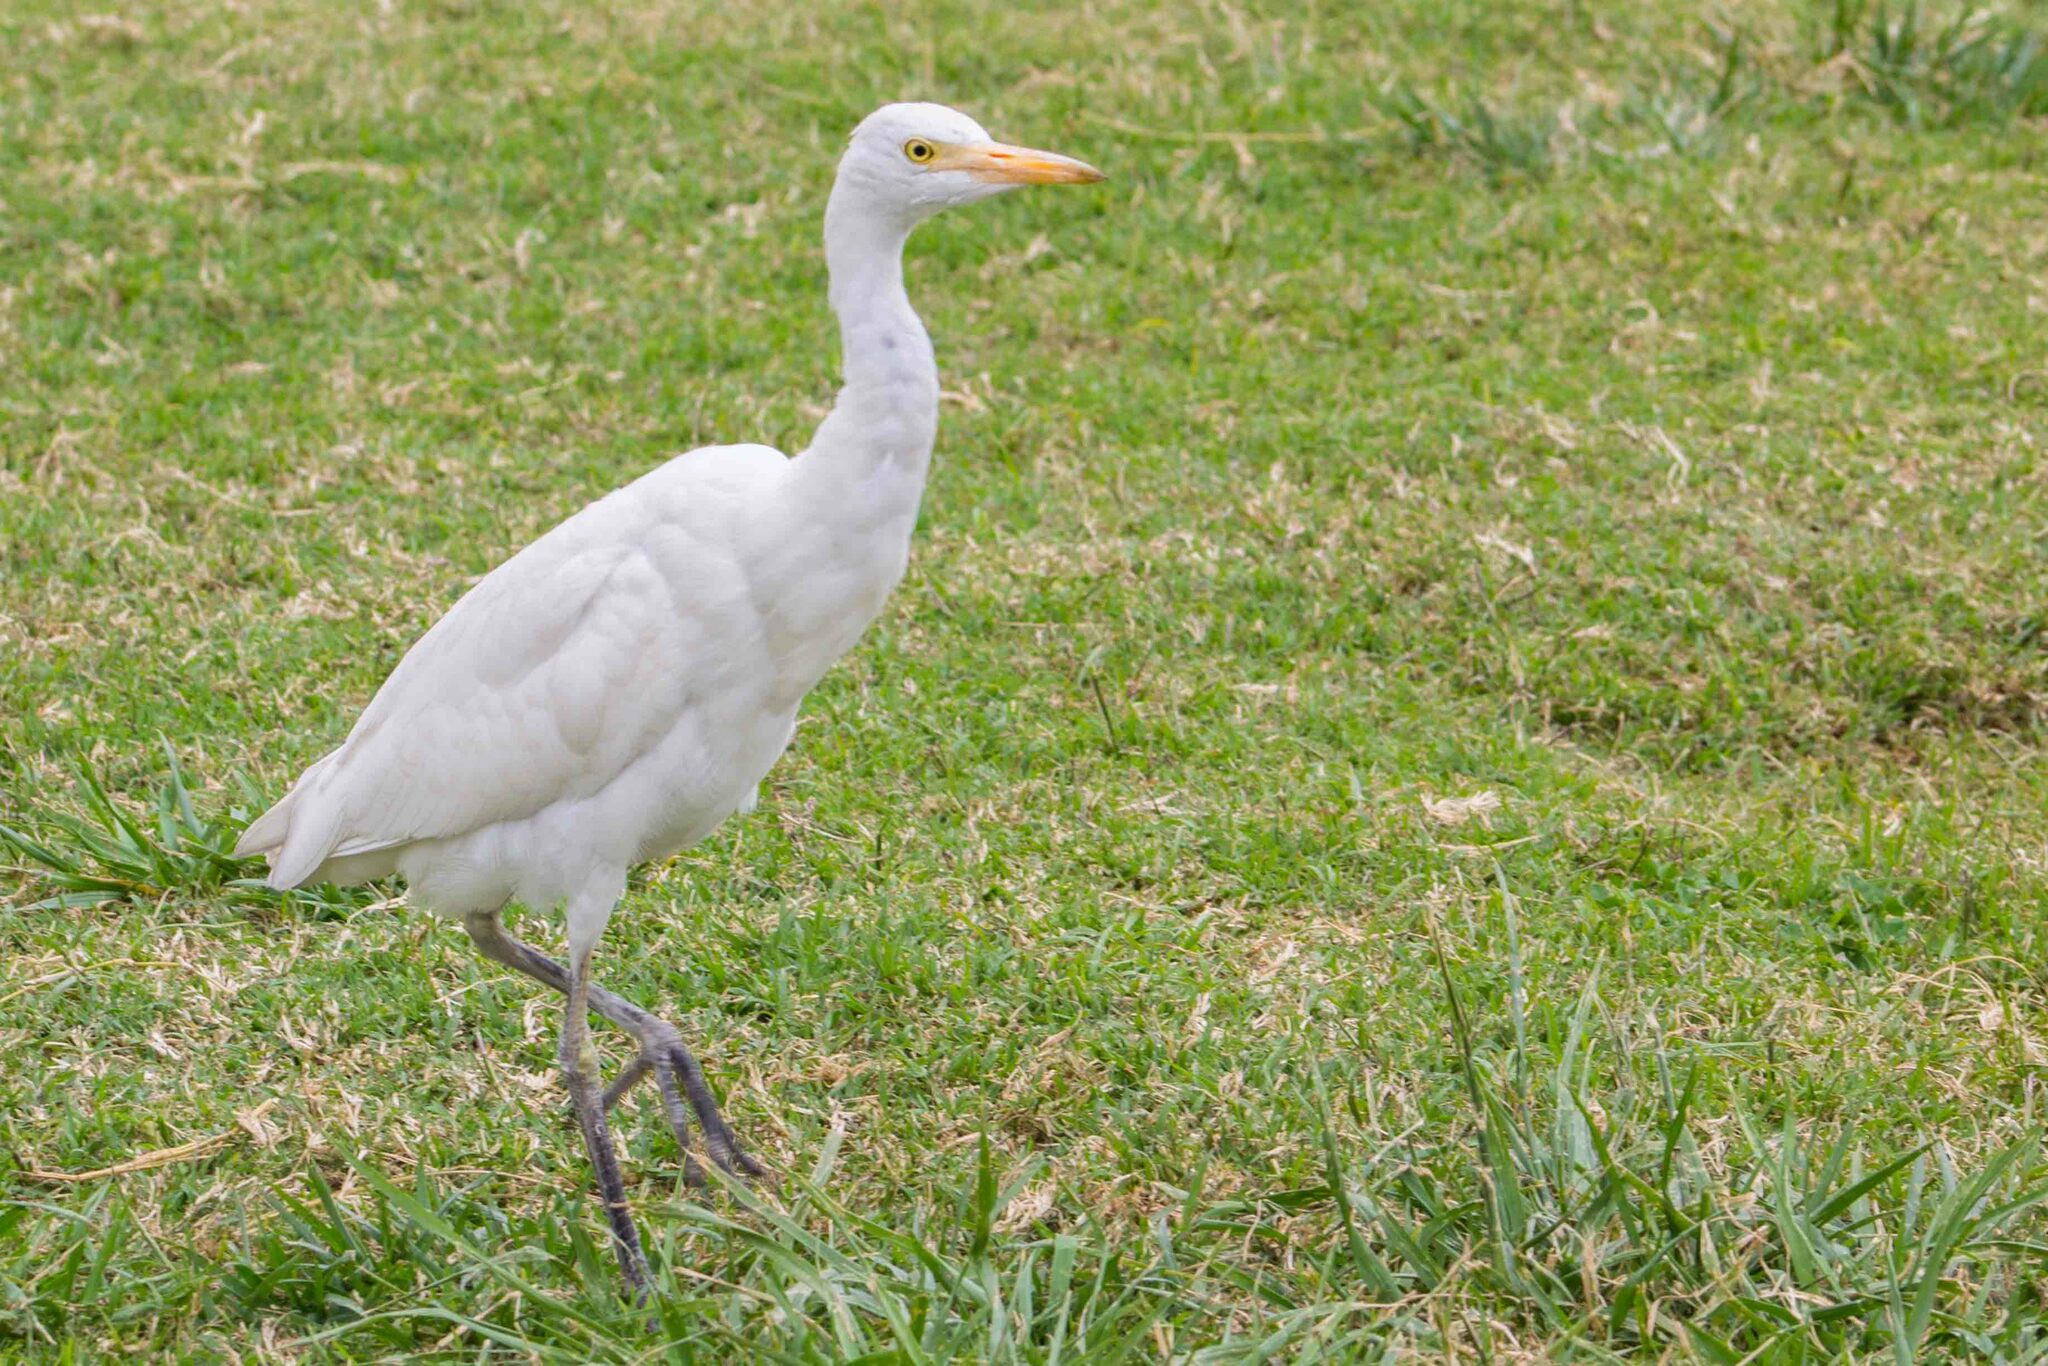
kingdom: Animalia
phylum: Chordata
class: Aves
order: Pelecaniformes
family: Ardeidae
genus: Bubulcus
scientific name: Bubulcus ibis
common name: Cattle egret
